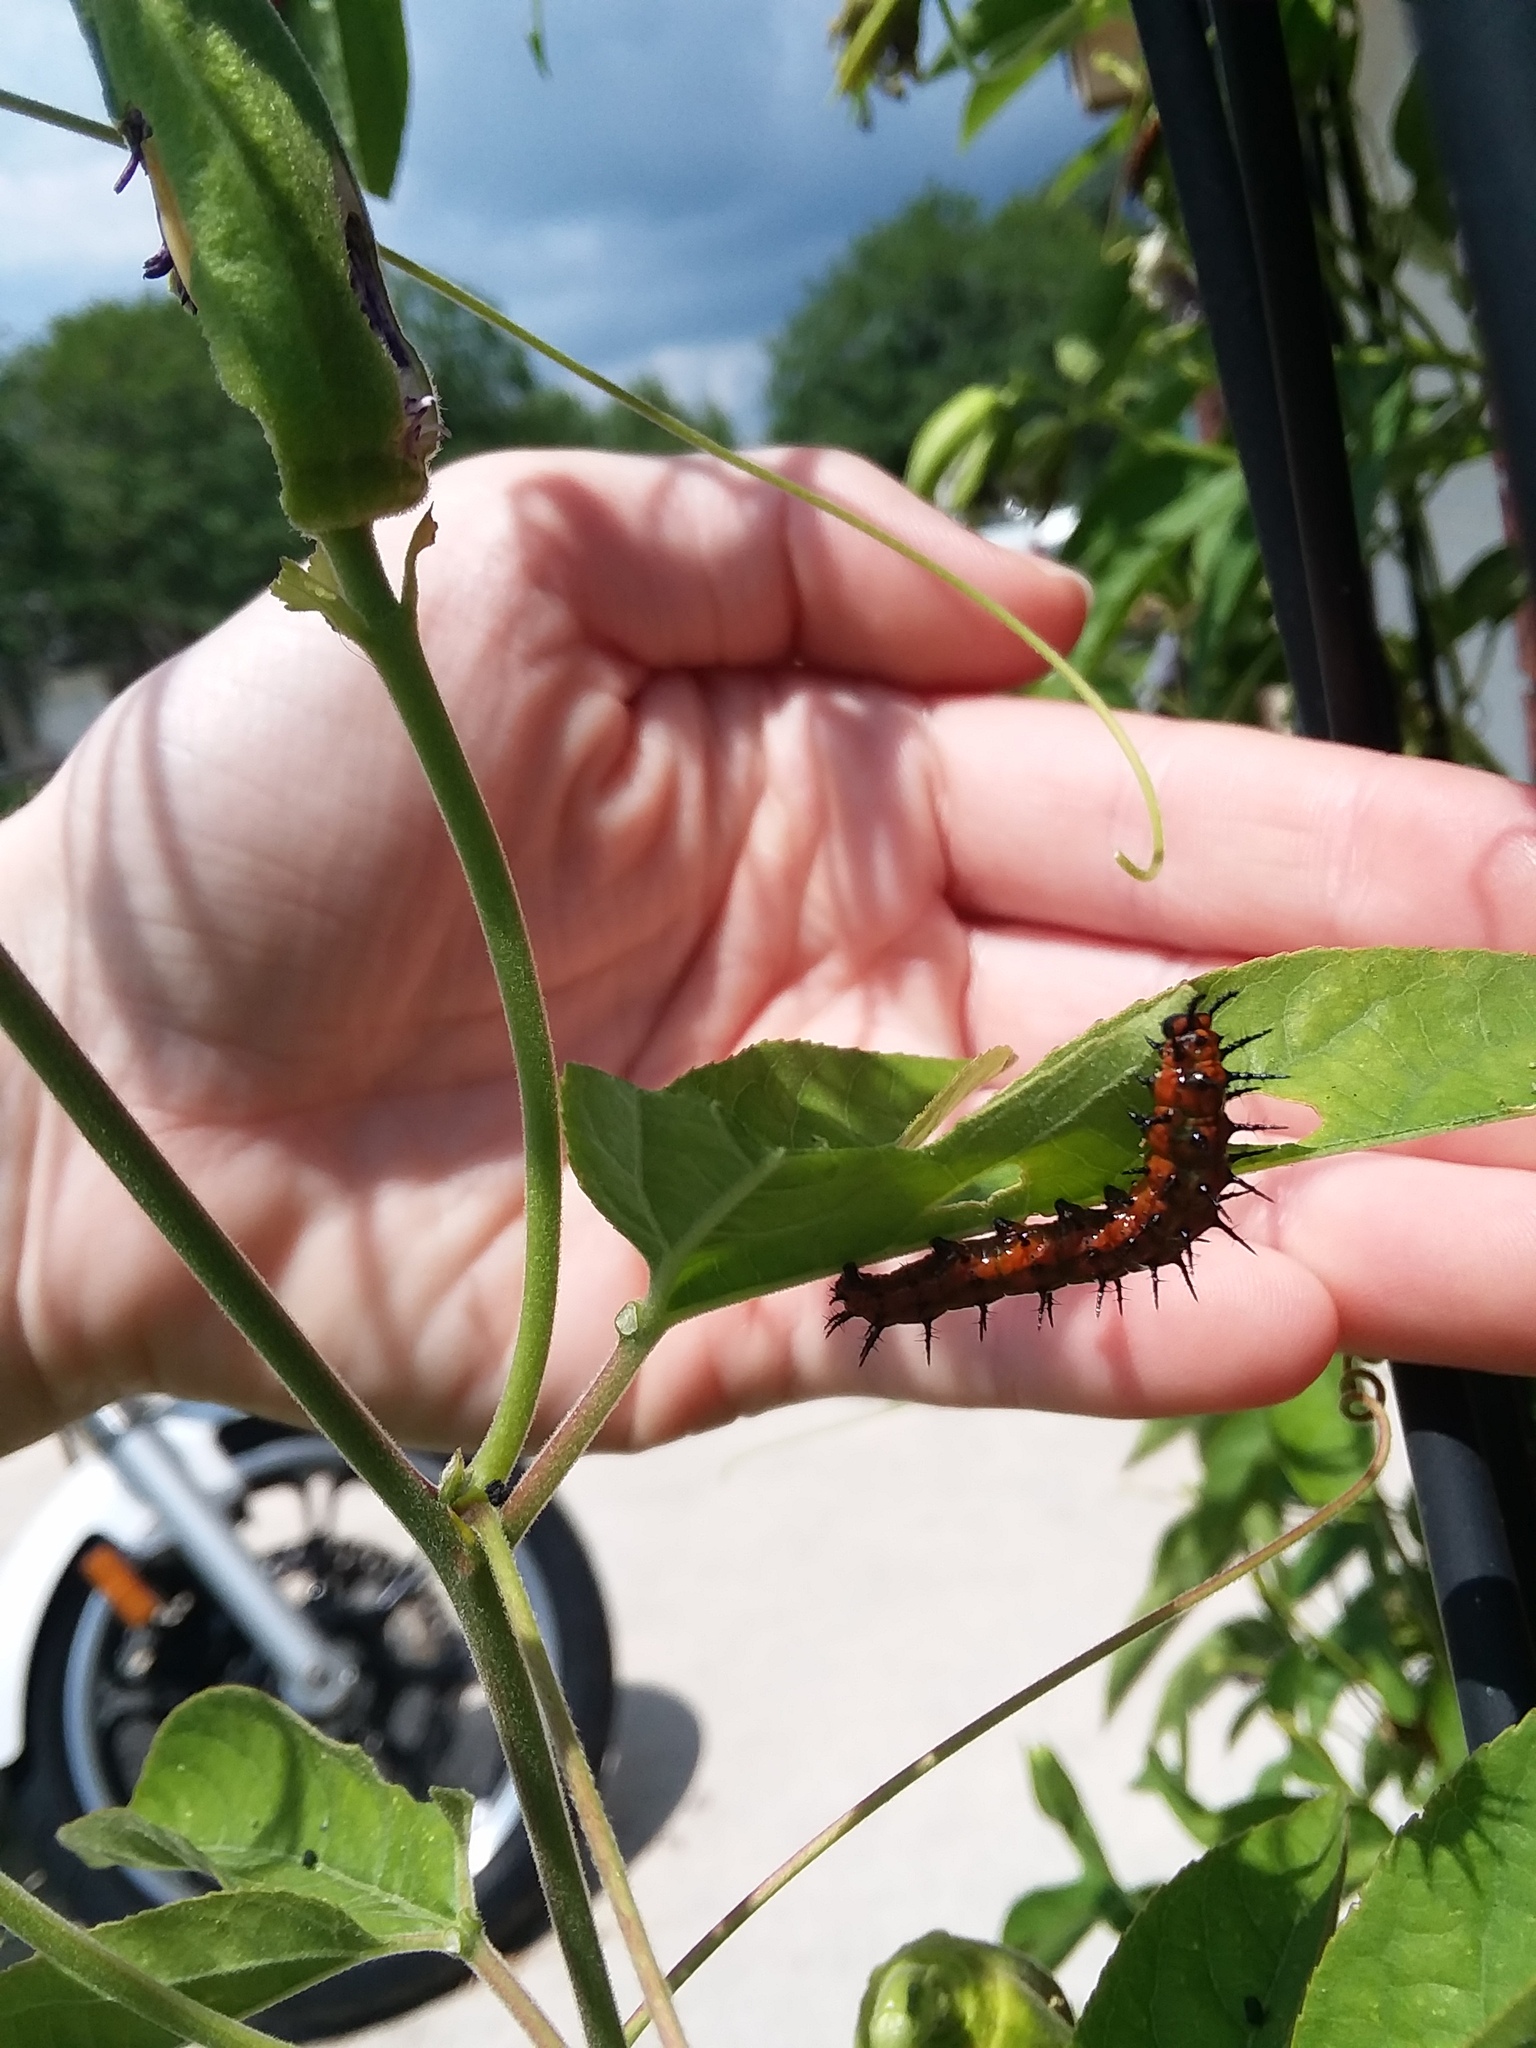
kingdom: Animalia
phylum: Arthropoda
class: Insecta
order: Lepidoptera
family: Nymphalidae
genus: Dione
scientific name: Dione vanillae
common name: Gulf fritillary
